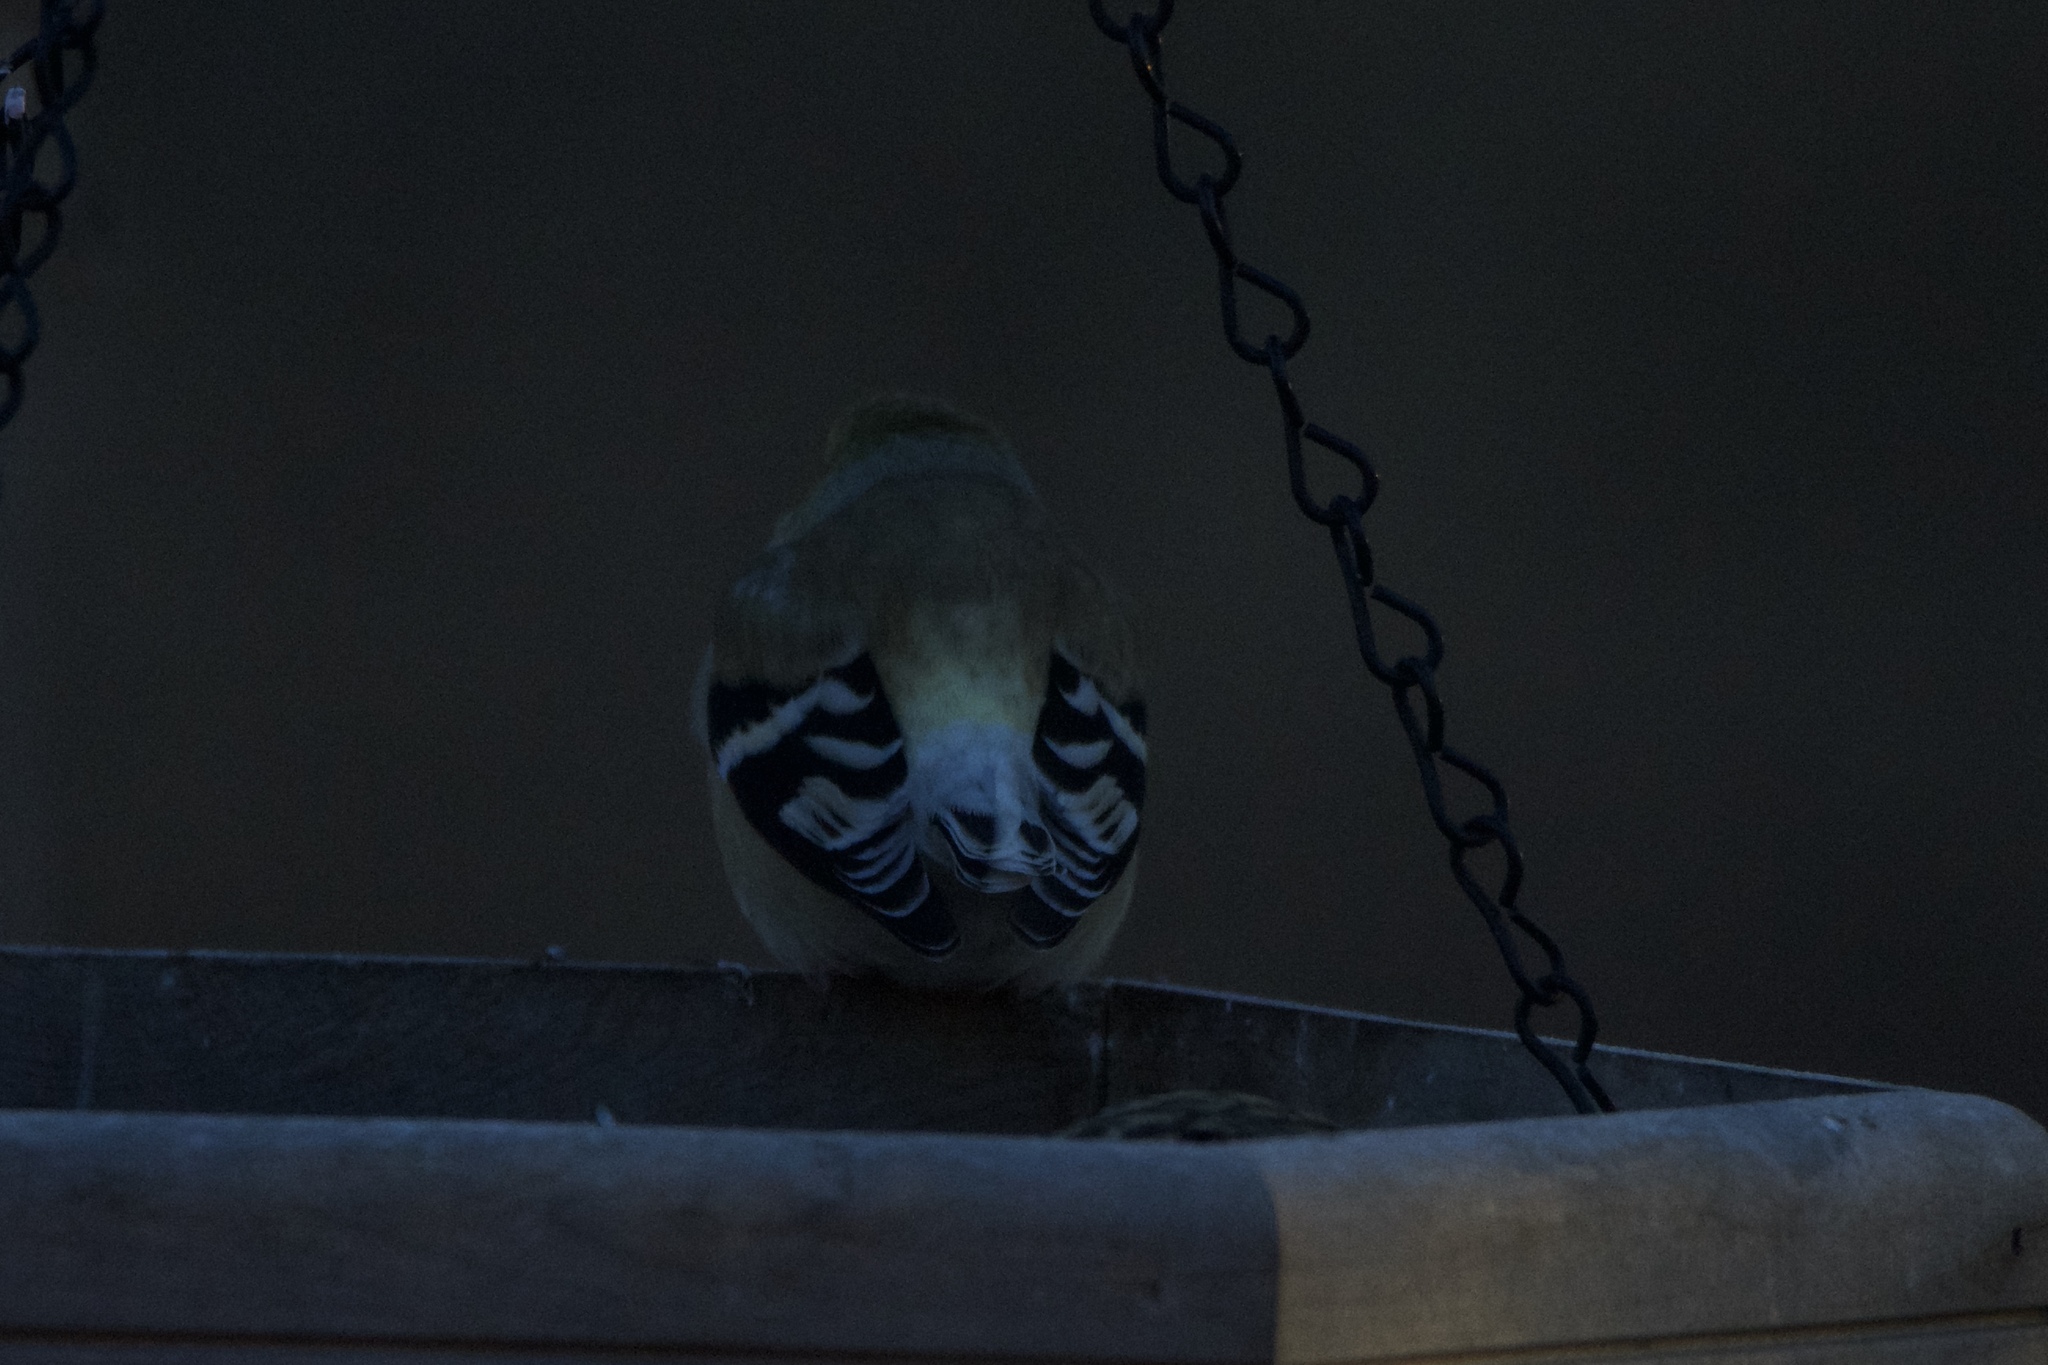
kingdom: Animalia
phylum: Chordata
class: Aves
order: Passeriformes
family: Fringillidae
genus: Spinus
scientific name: Spinus tristis
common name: American goldfinch
